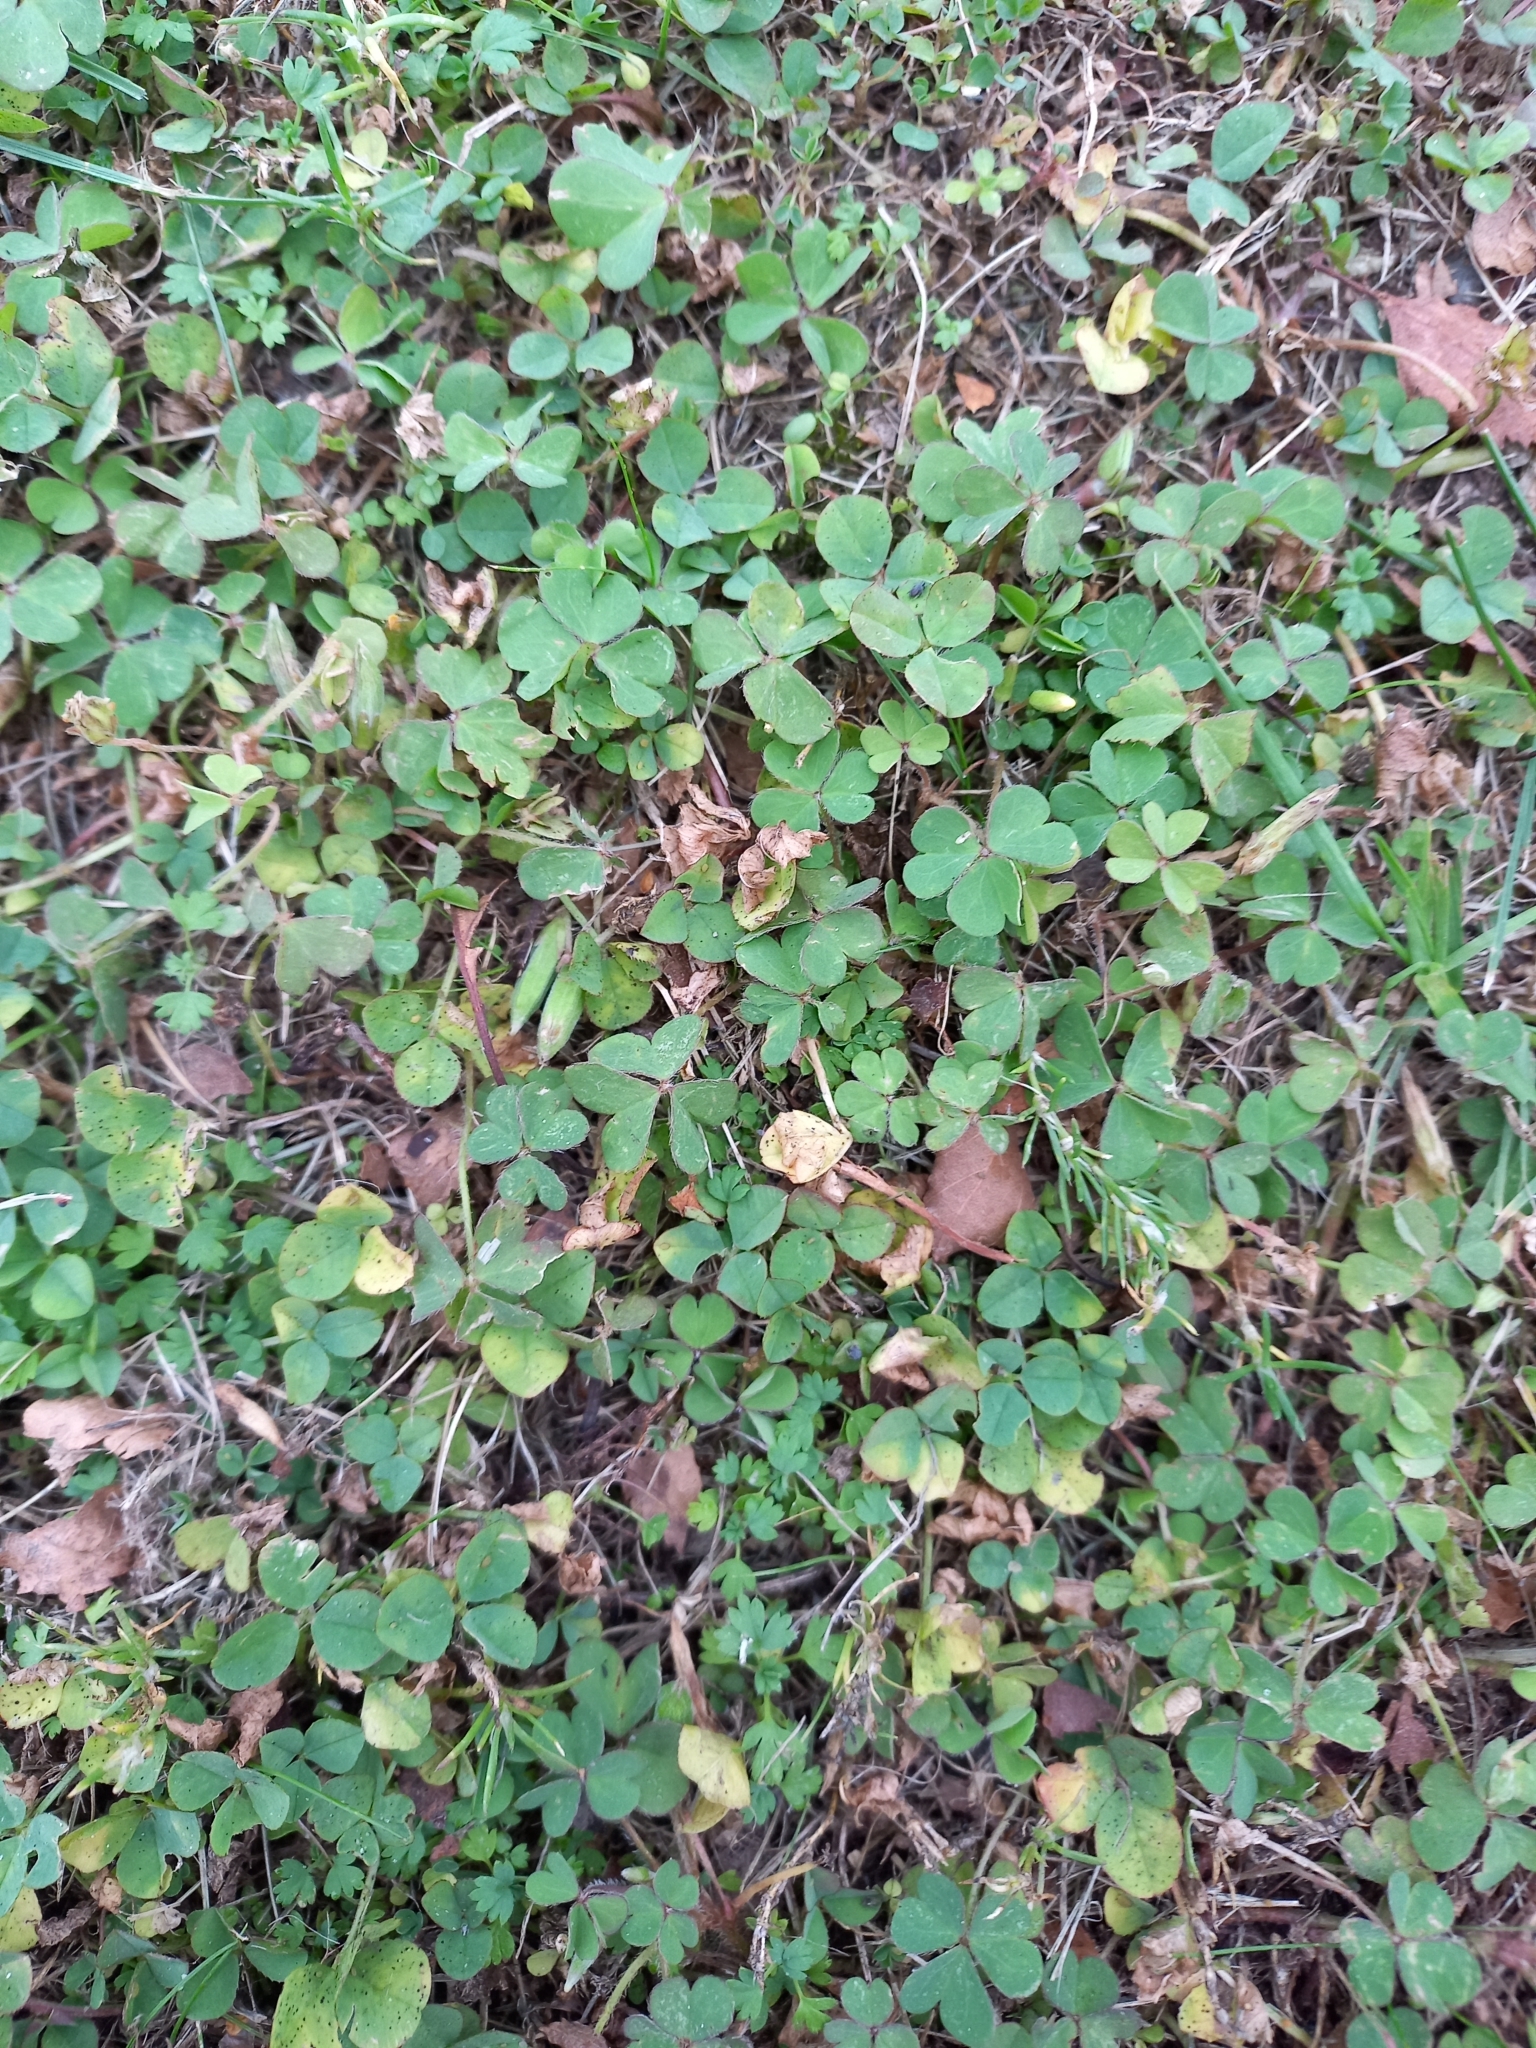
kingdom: Plantae
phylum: Tracheophyta
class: Magnoliopsida
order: Oxalidales
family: Oxalidaceae
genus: Oxalis
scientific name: Oxalis exilis
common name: Least yellow-sorrel
